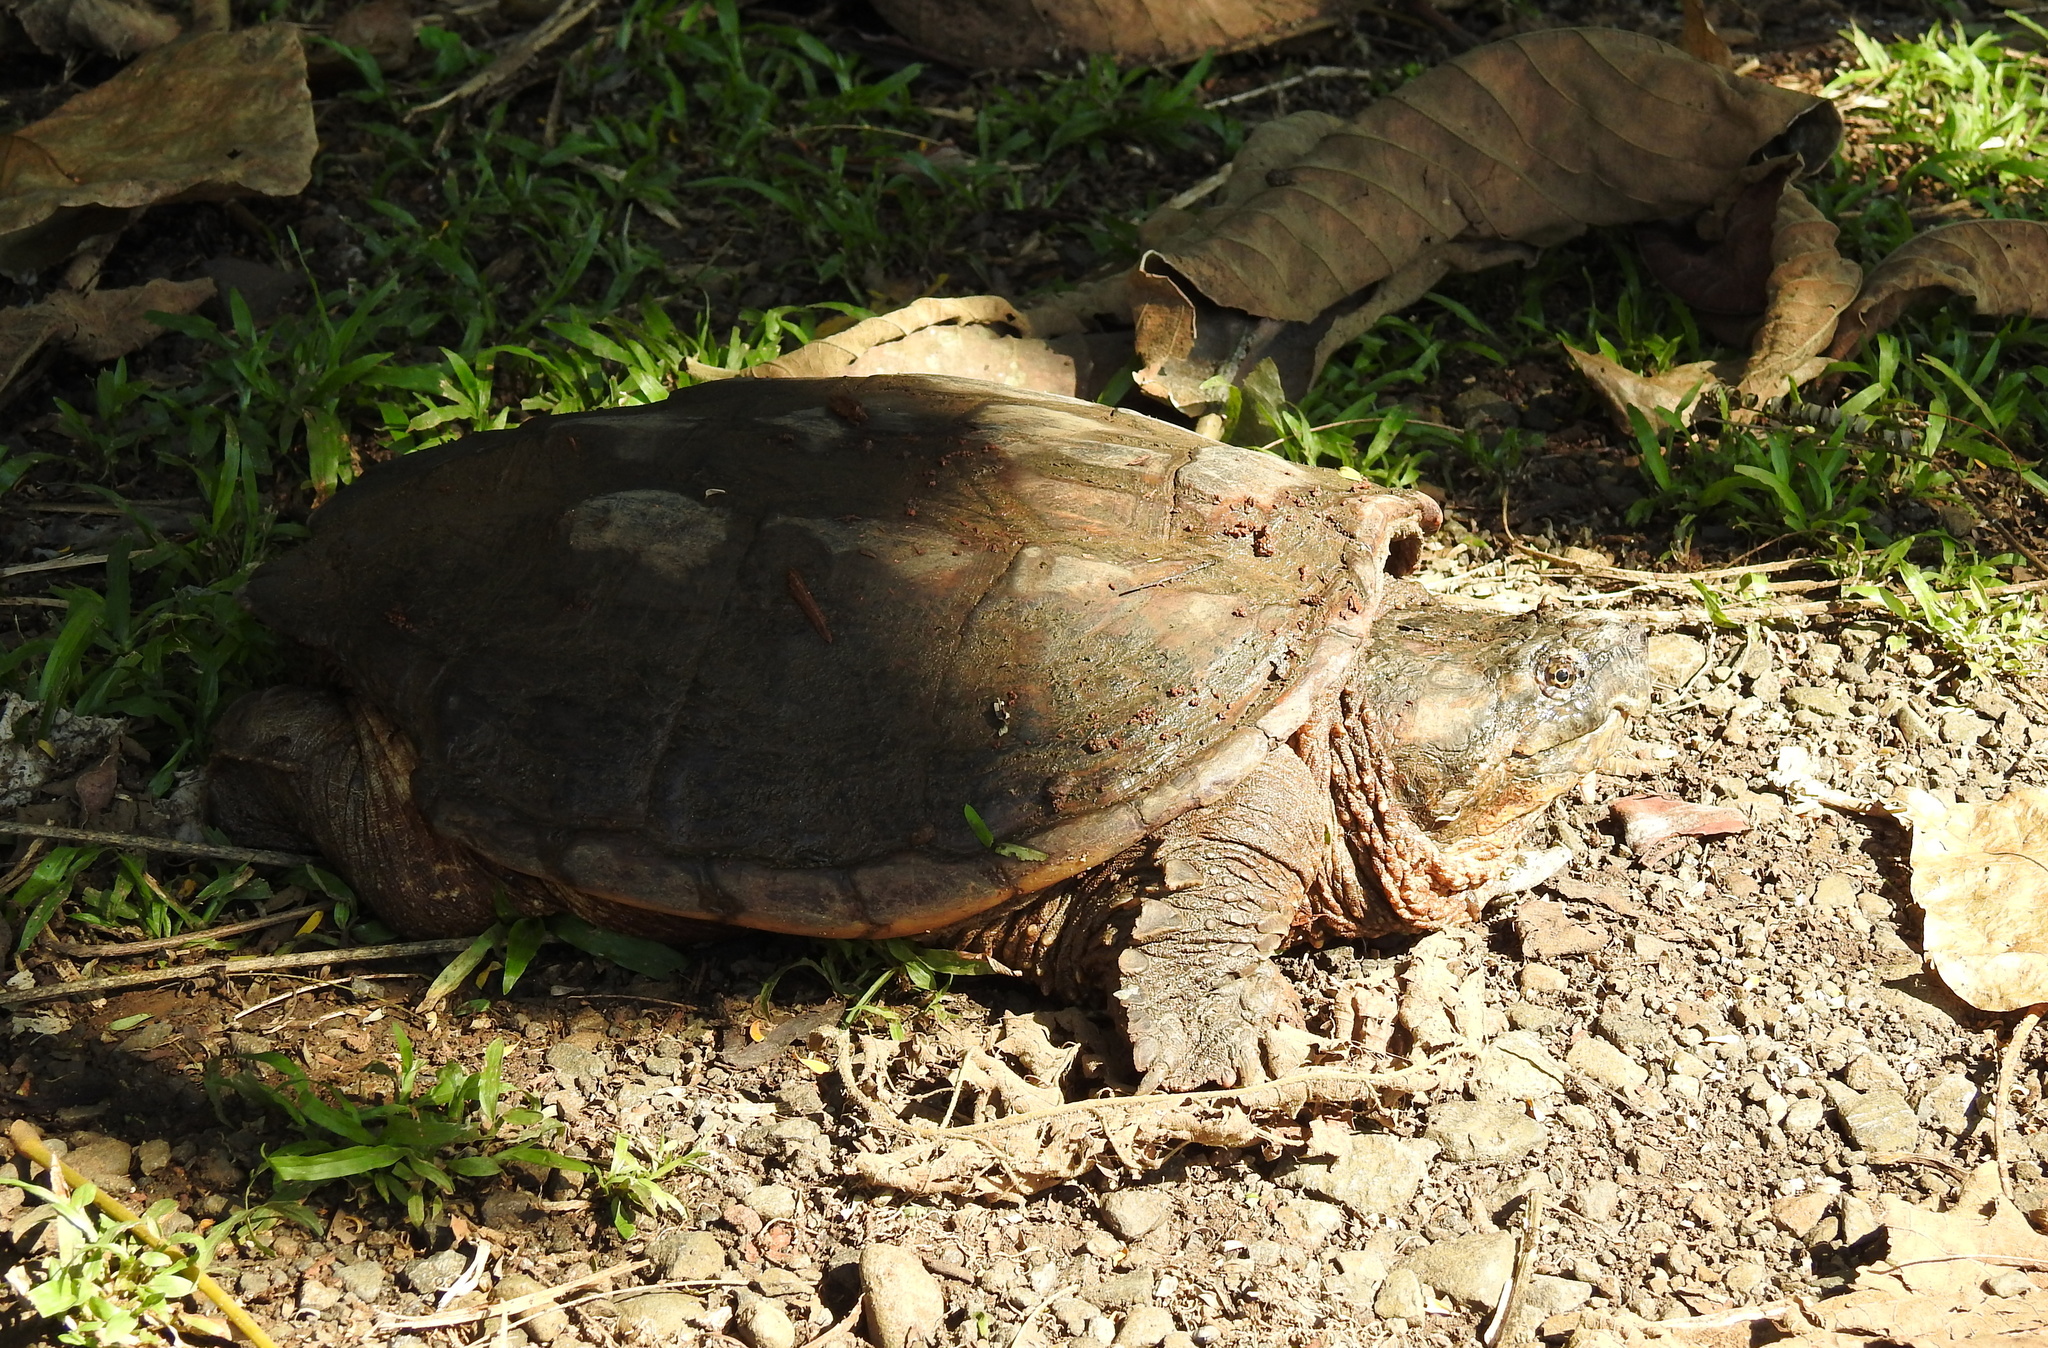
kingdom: Animalia
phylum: Chordata
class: Testudines
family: Chelydridae
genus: Chelydra
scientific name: Chelydra acutirostris
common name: South american snapping turtle
